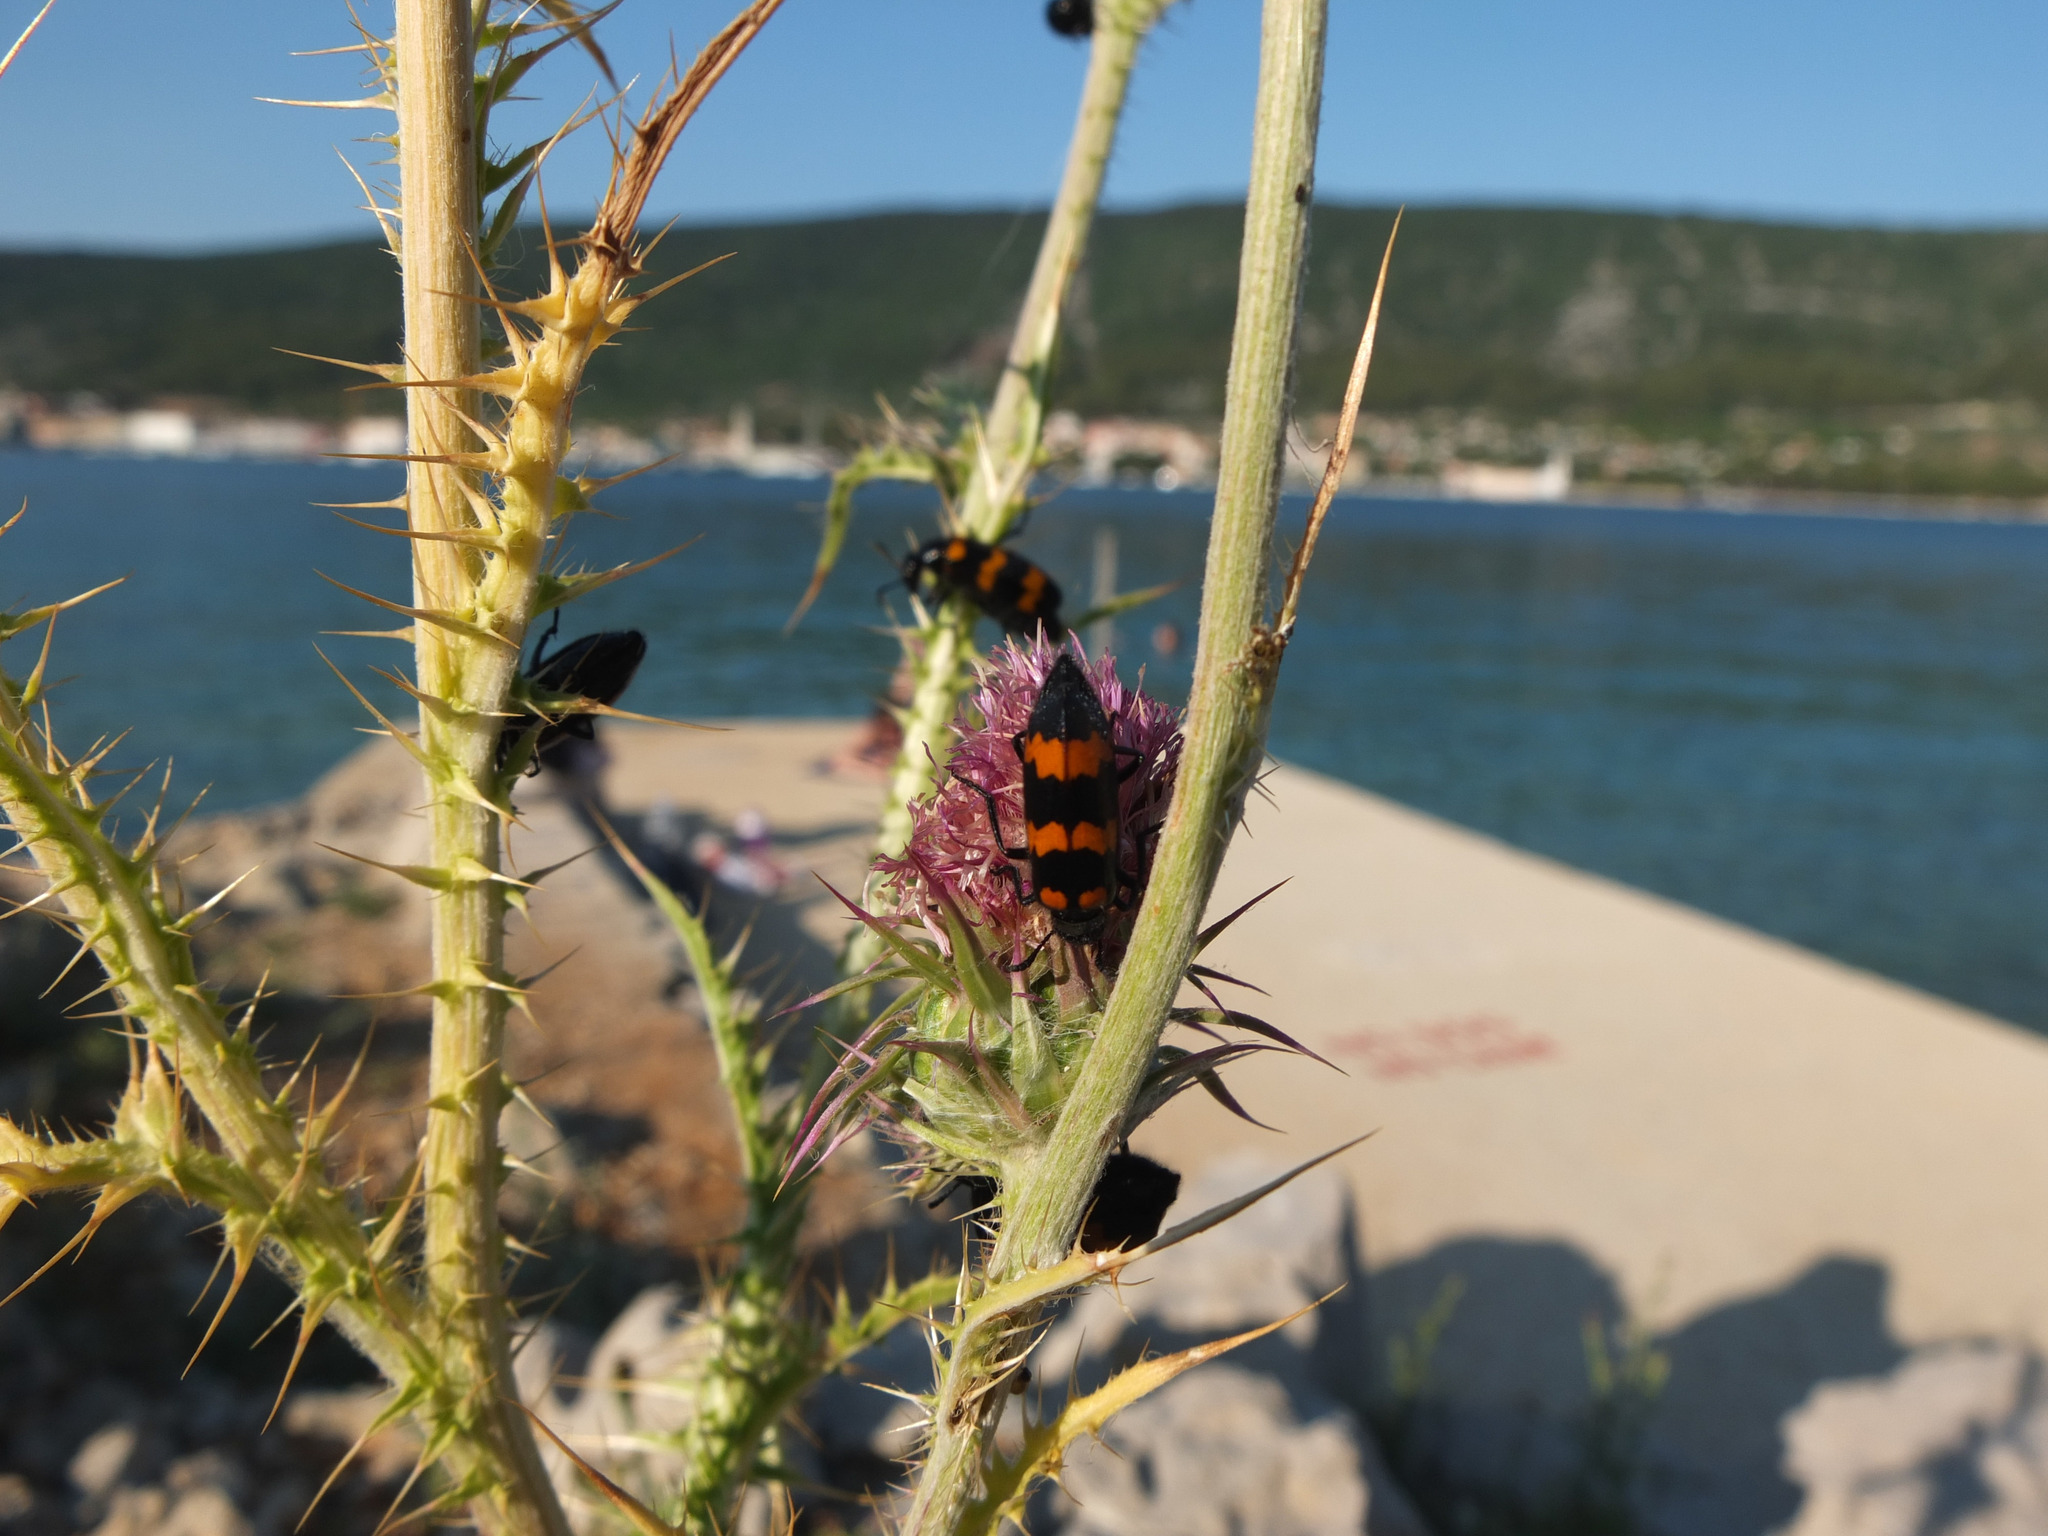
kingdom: Animalia
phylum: Arthropoda
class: Insecta
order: Coleoptera
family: Meloidae
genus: Mylabris
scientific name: Mylabris variabilis
